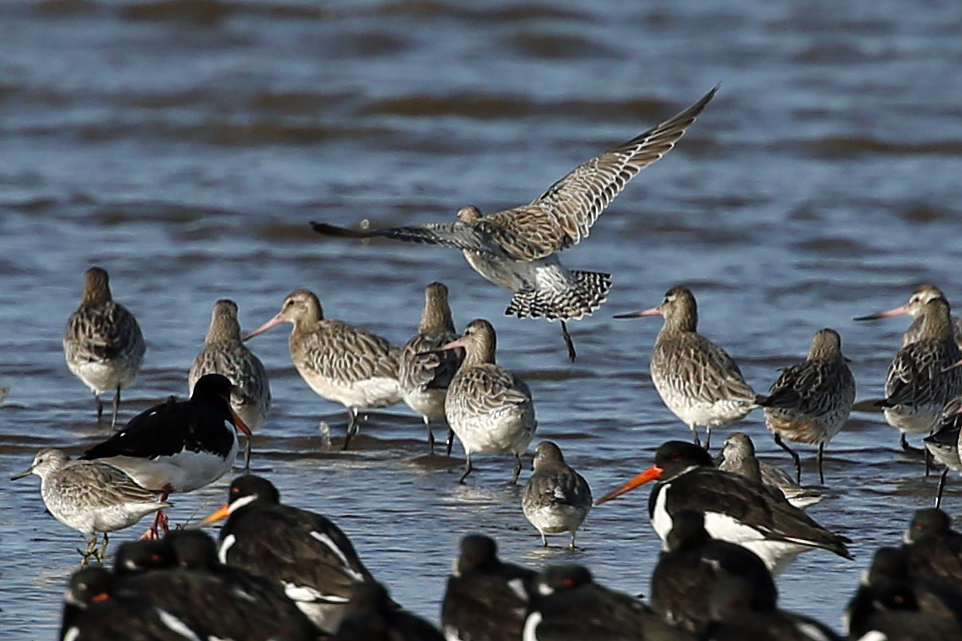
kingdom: Animalia
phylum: Chordata
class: Aves
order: Charadriiformes
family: Scolopacidae
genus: Limosa
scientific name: Limosa lapponica
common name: Bar-tailed godwit
